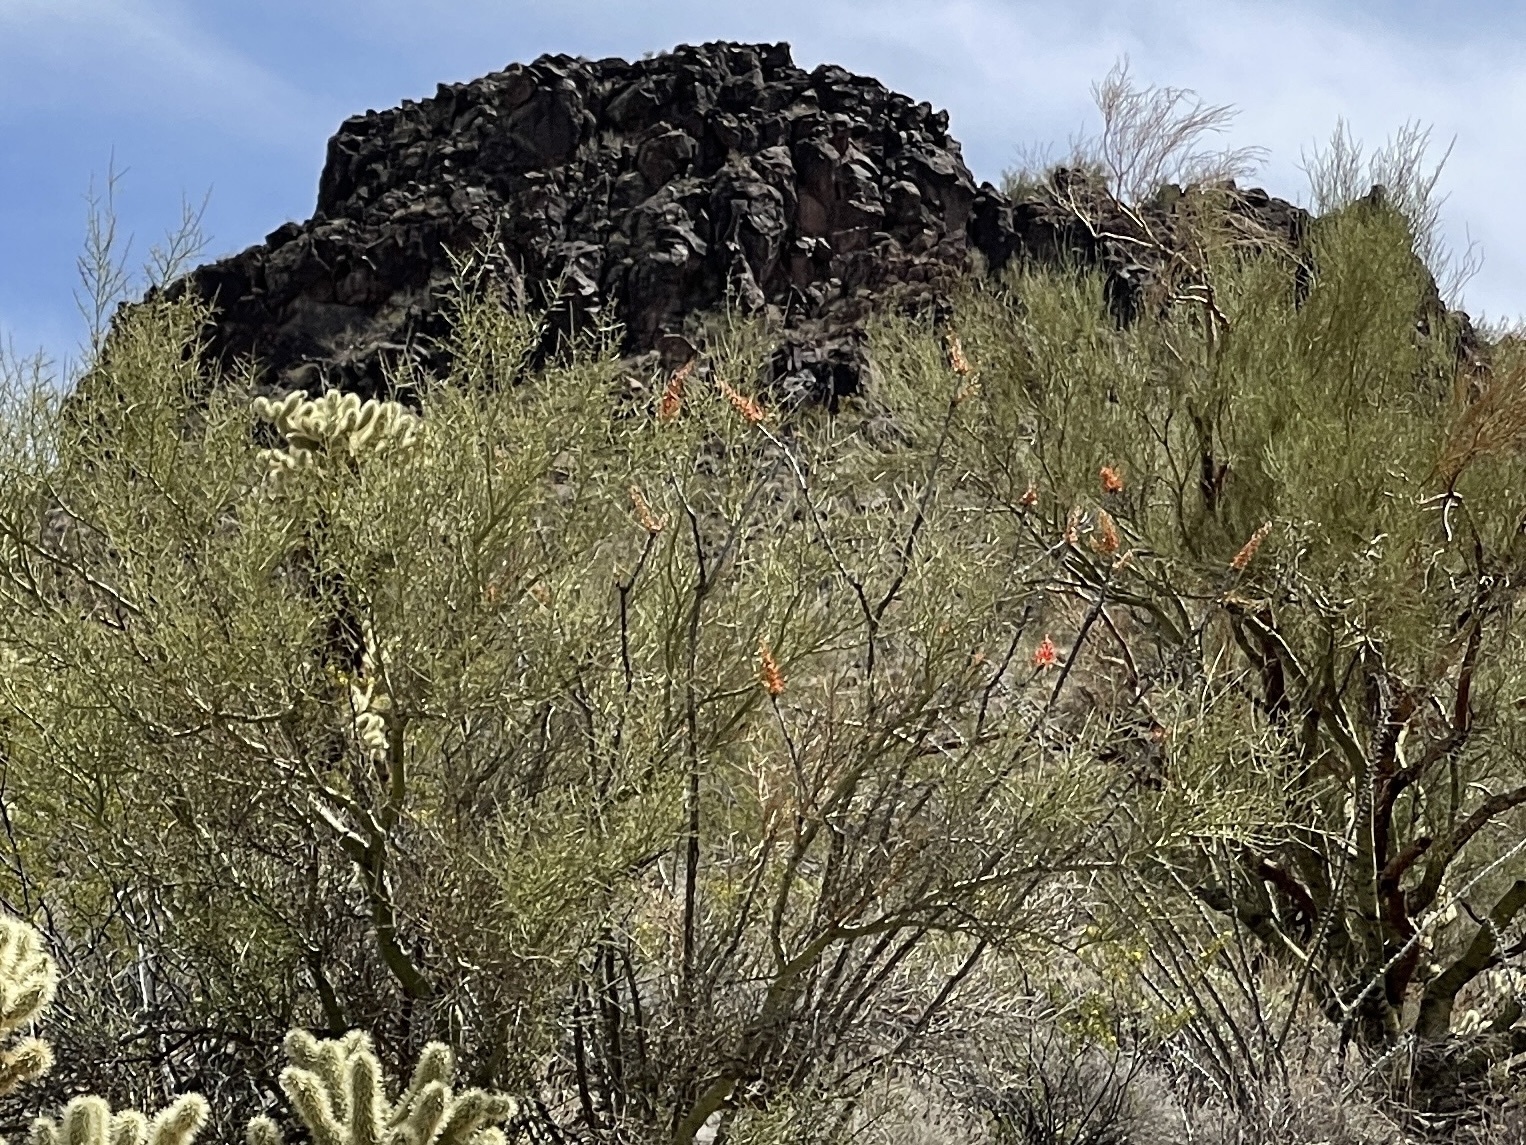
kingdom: Plantae
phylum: Tracheophyta
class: Magnoliopsida
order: Fabales
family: Fabaceae
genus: Parkinsonia
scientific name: Parkinsonia microphylla
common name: Yellow paloverde
